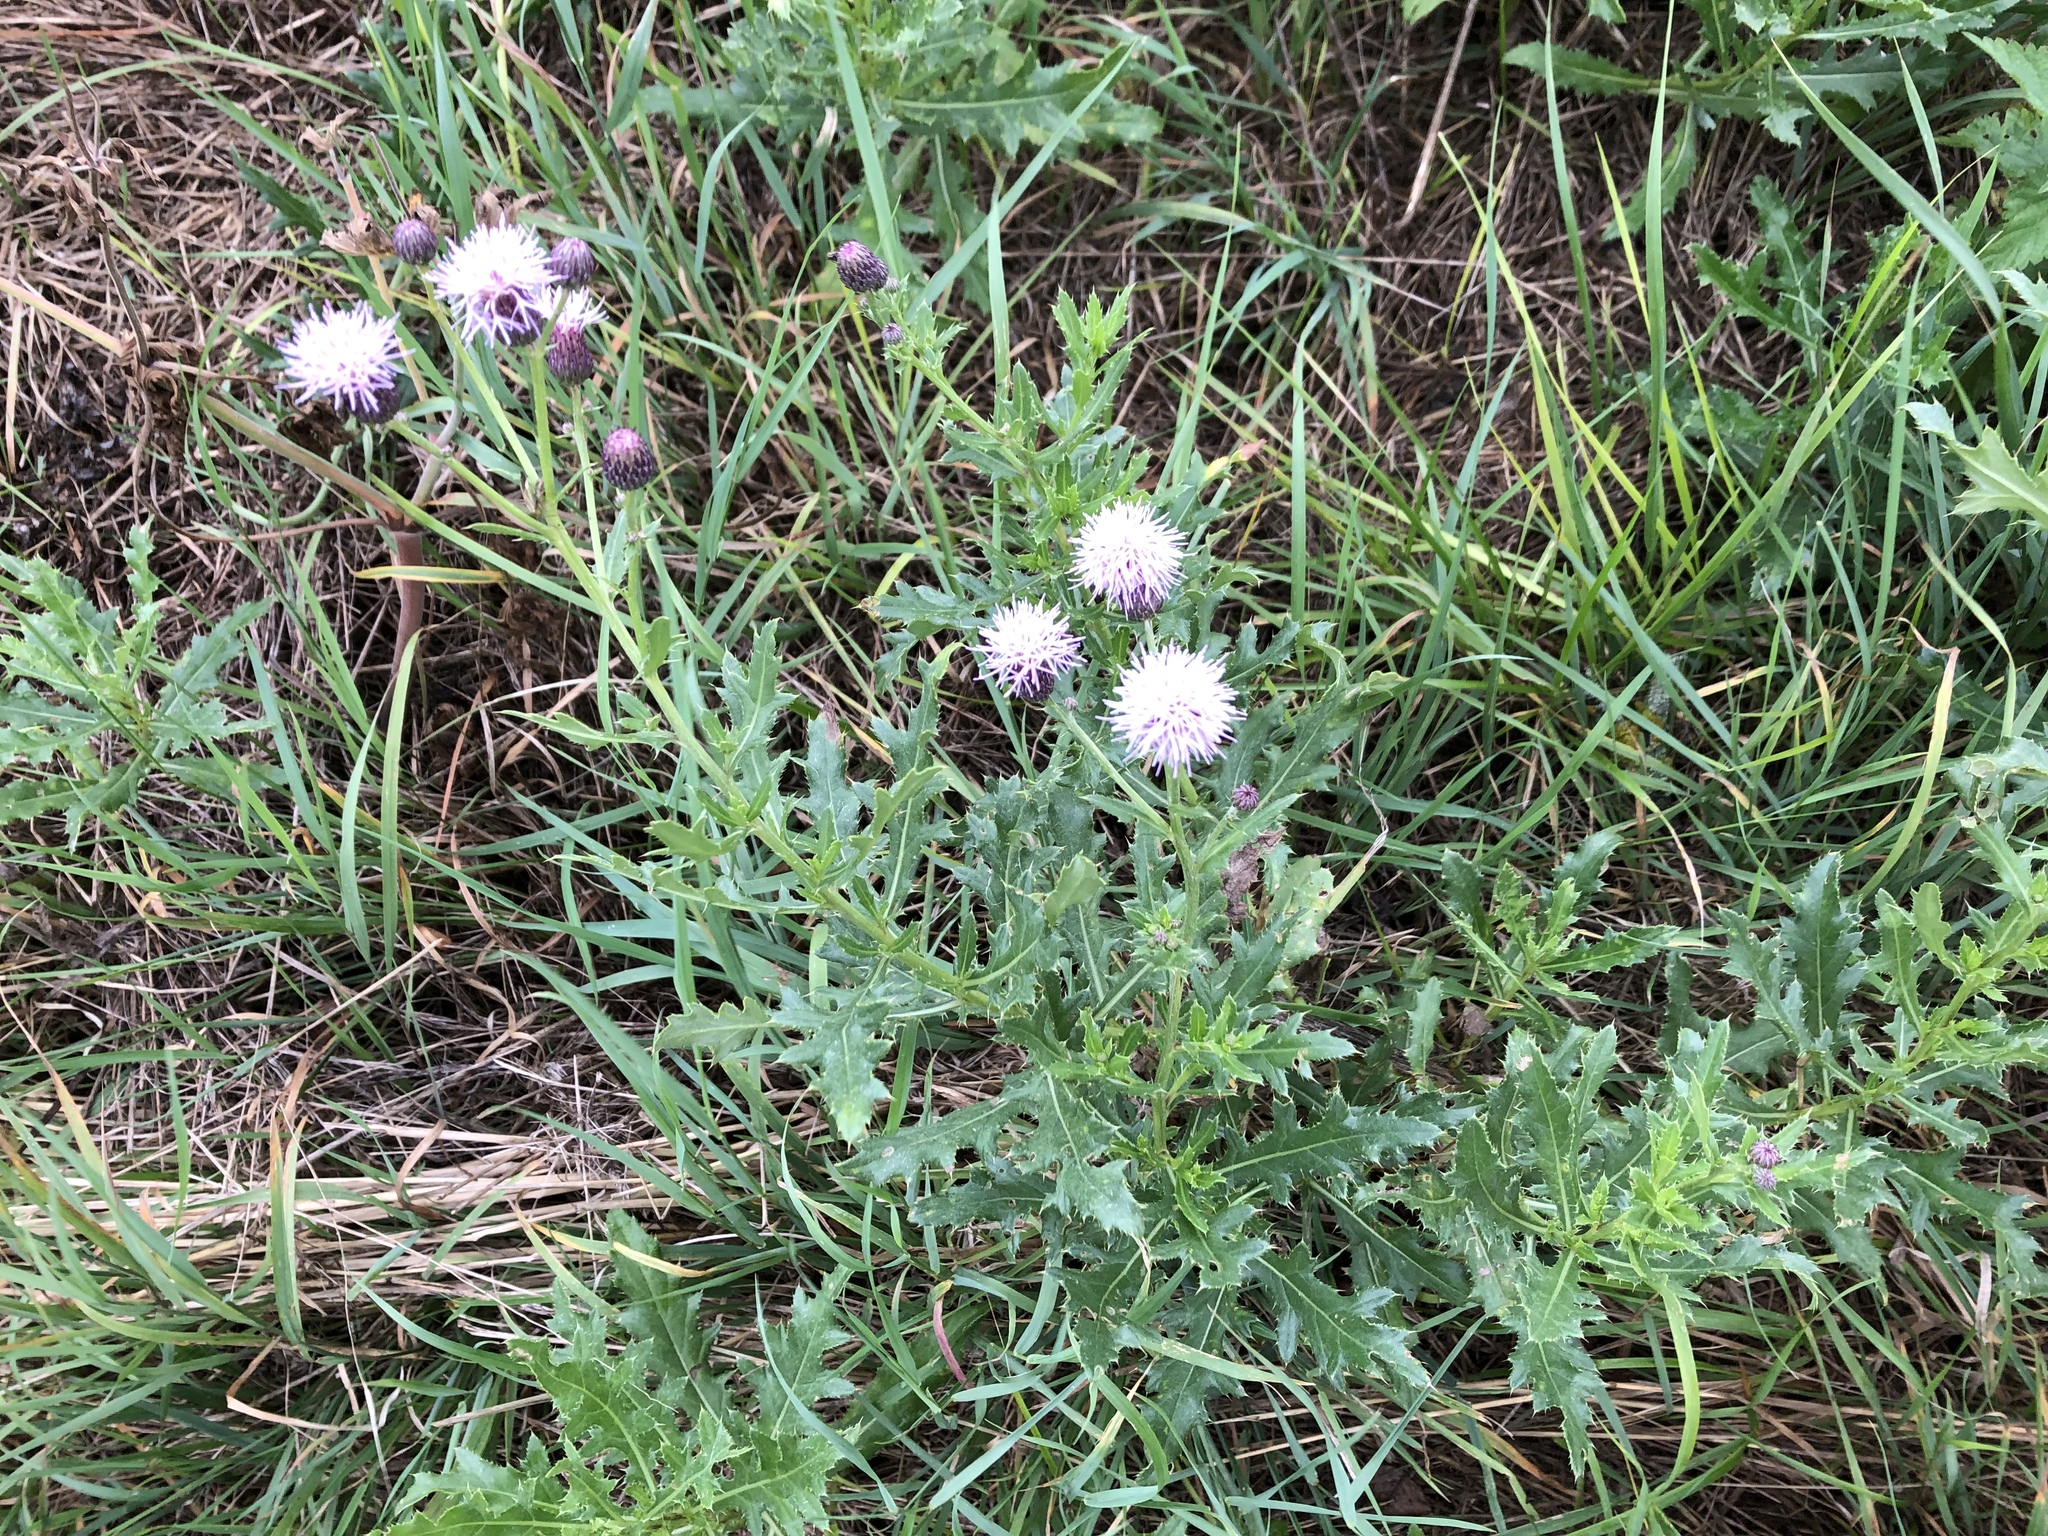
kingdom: Plantae
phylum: Tracheophyta
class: Magnoliopsida
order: Asterales
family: Asteraceae
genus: Cirsium
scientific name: Cirsium arvense
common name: Creeping thistle
